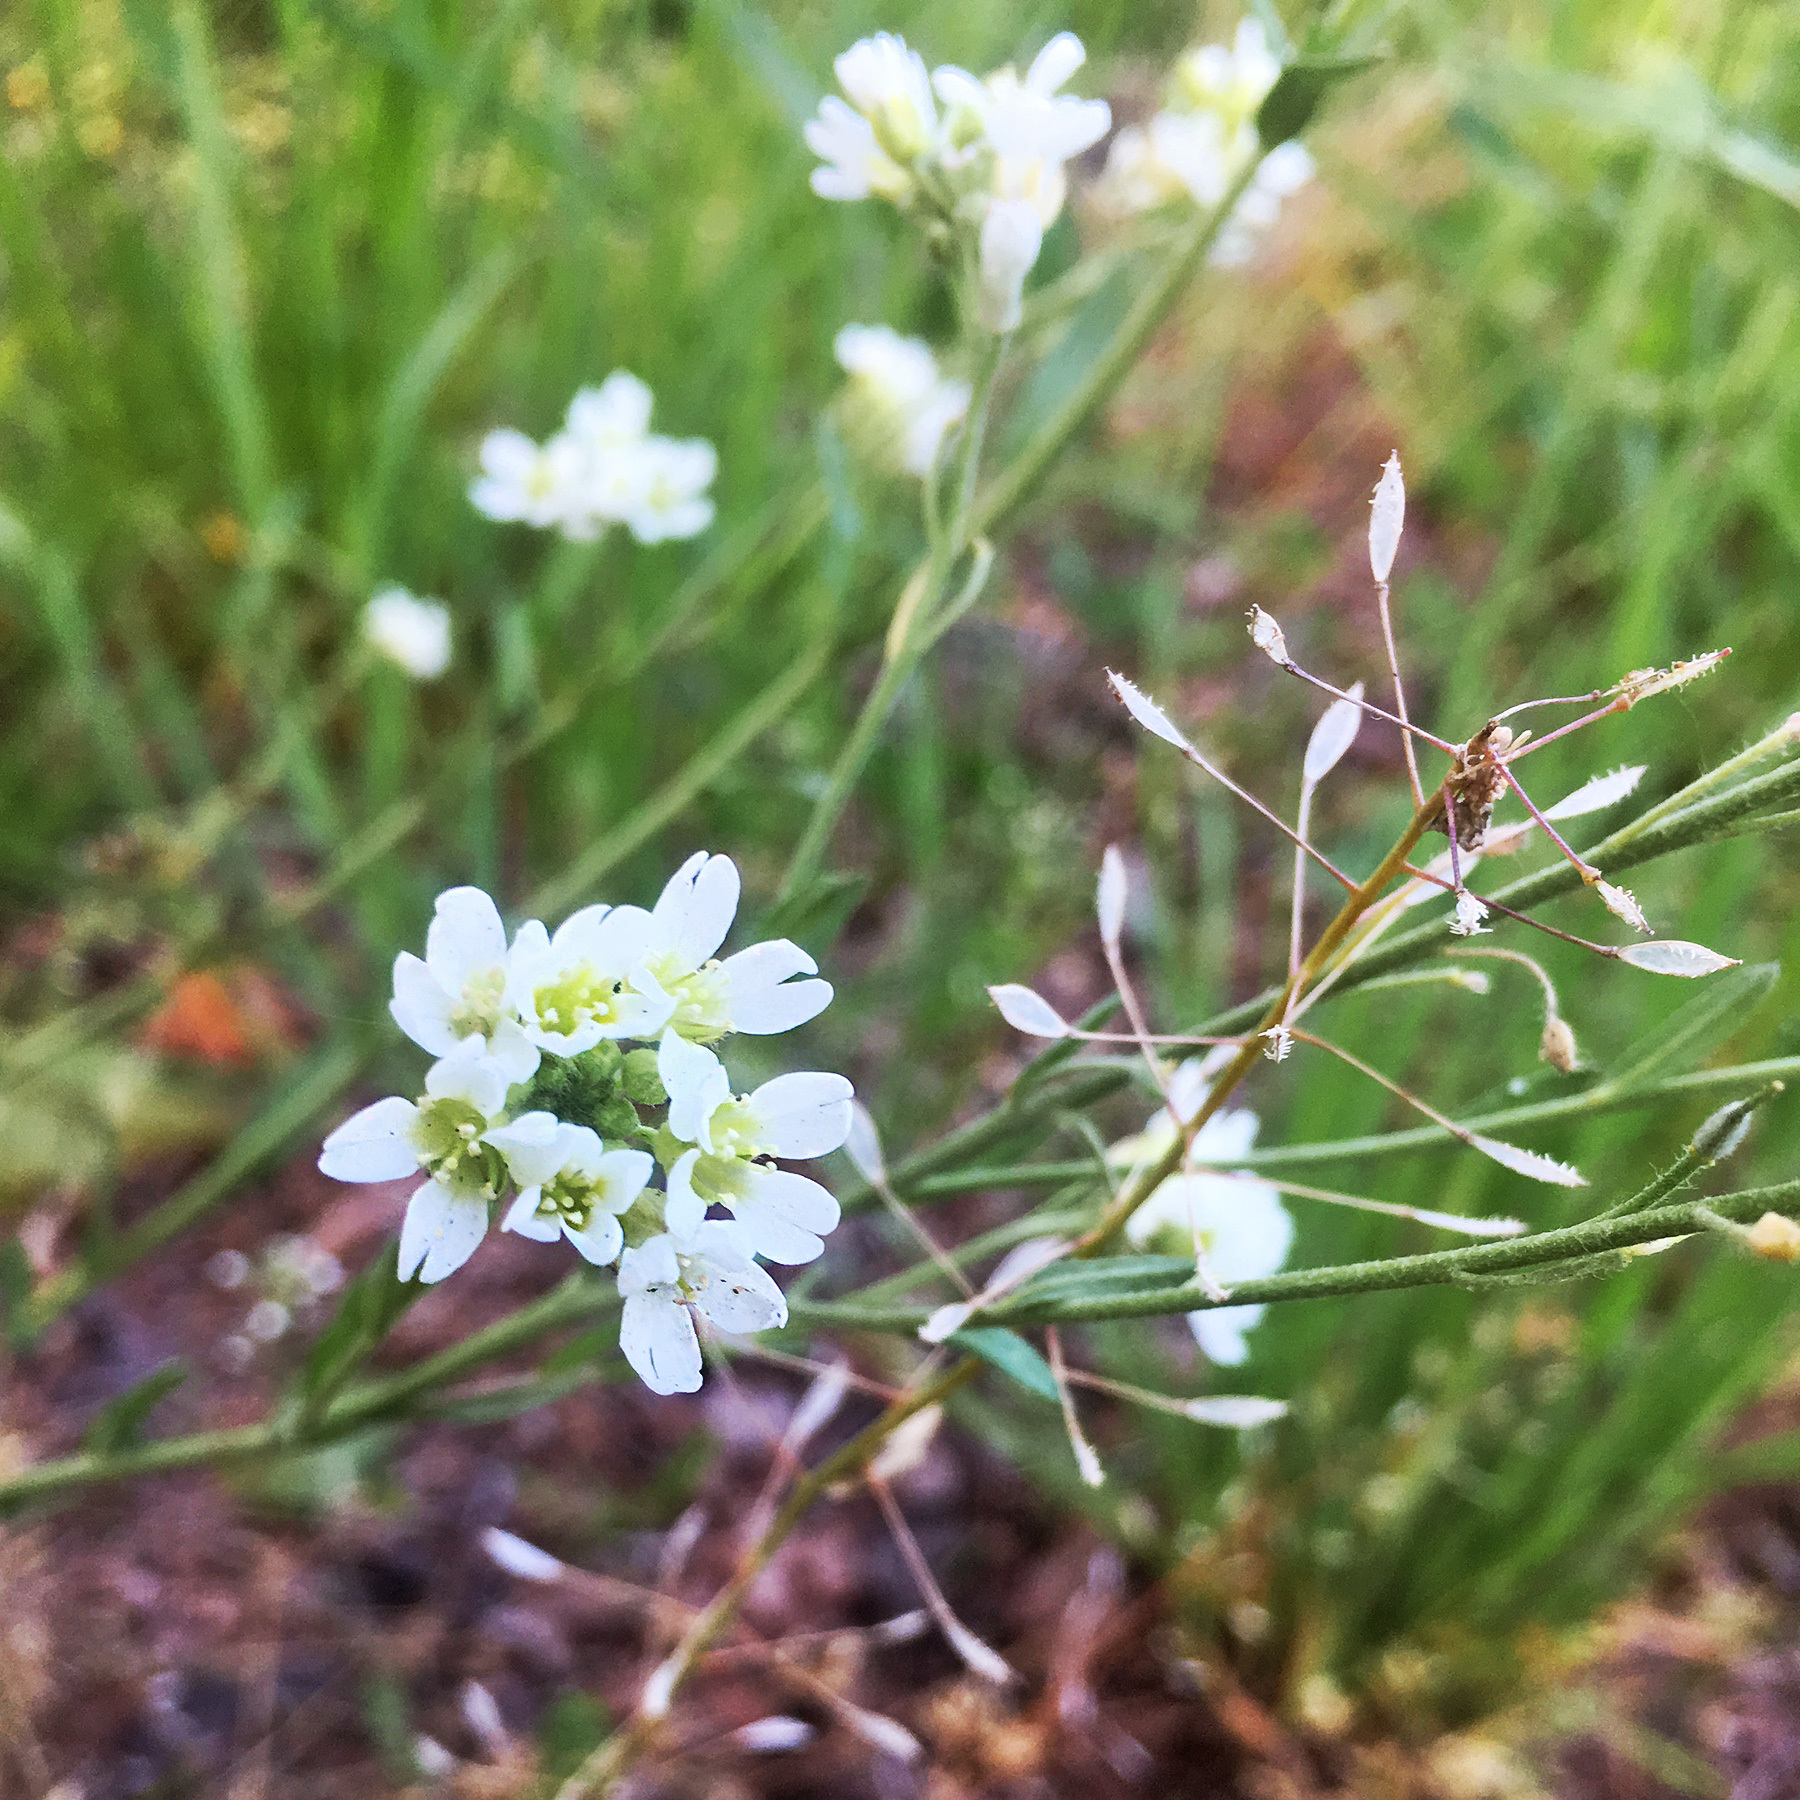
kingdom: Plantae
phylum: Tracheophyta
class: Magnoliopsida
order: Brassicales
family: Brassicaceae
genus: Berteroa
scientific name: Berteroa incana
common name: Hoary alison
